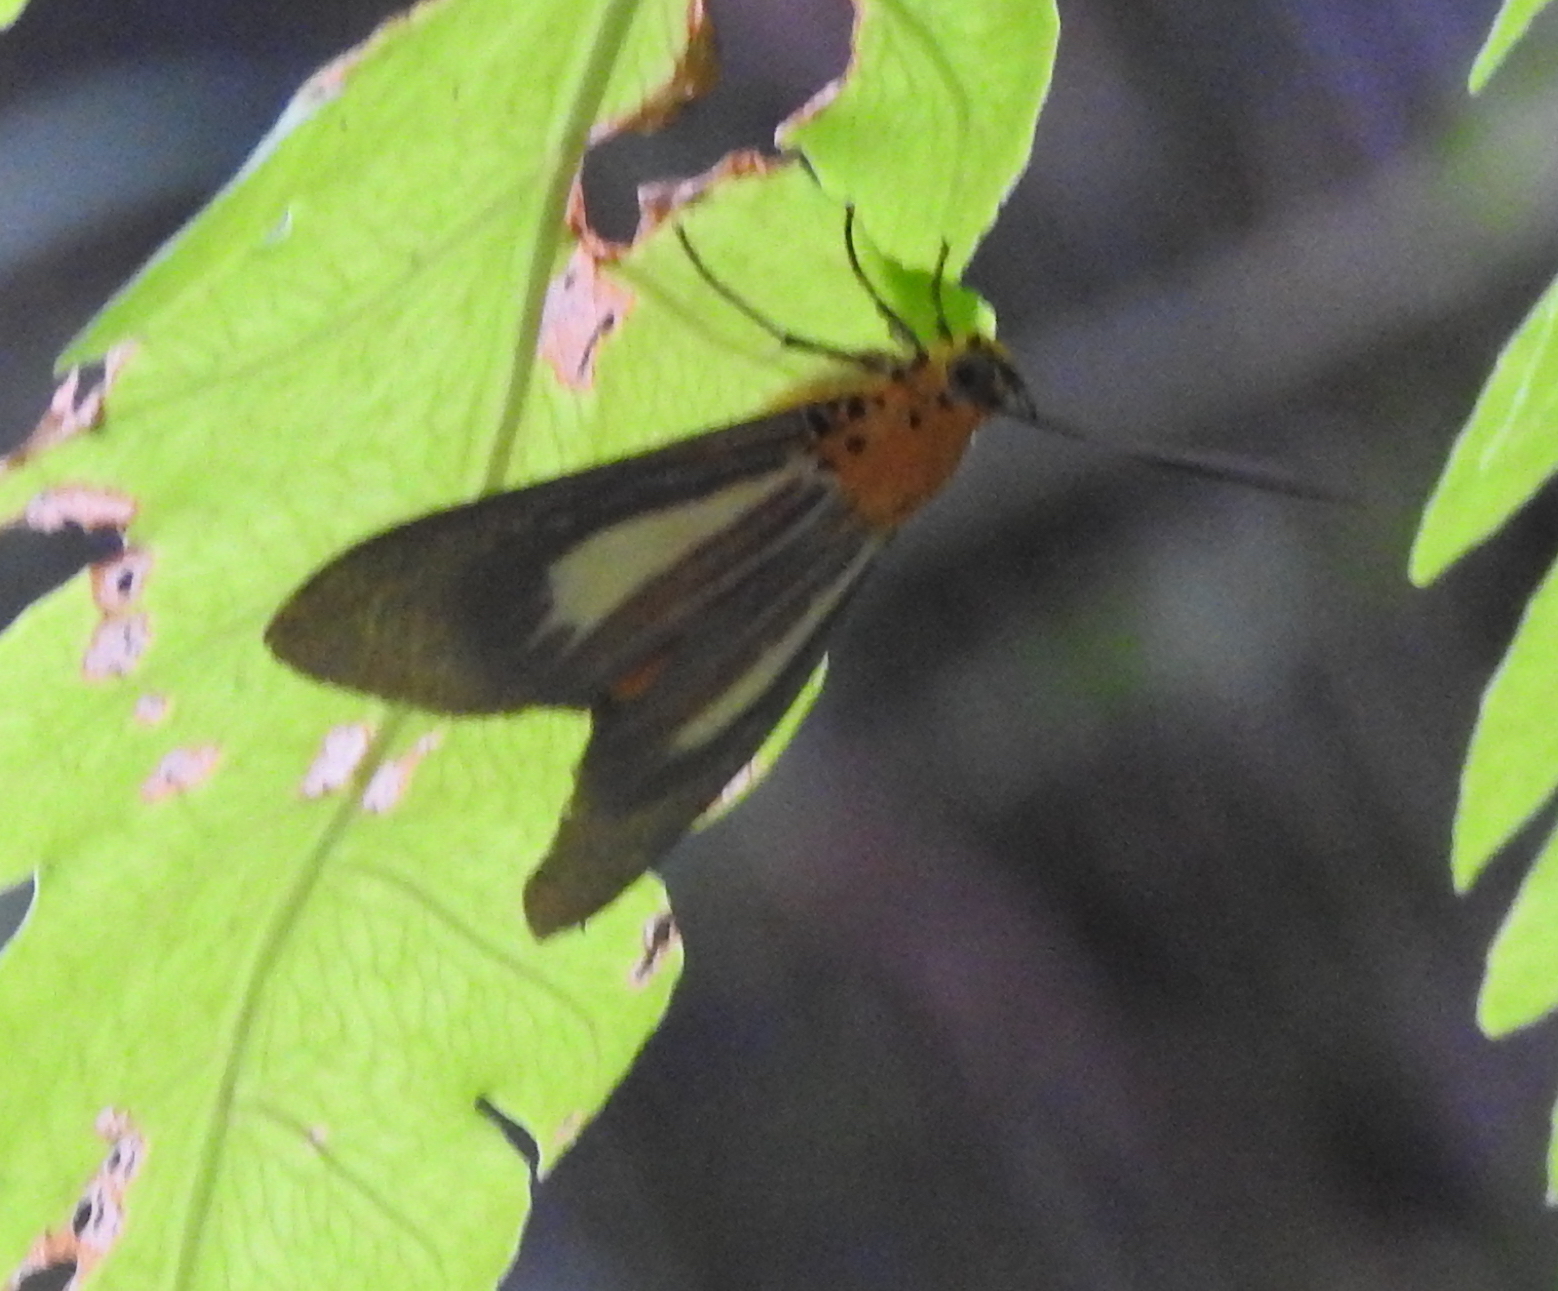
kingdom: Animalia
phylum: Arthropoda
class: Insecta
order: Lepidoptera
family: Erebidae
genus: Asota
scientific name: Asota subsimilis
